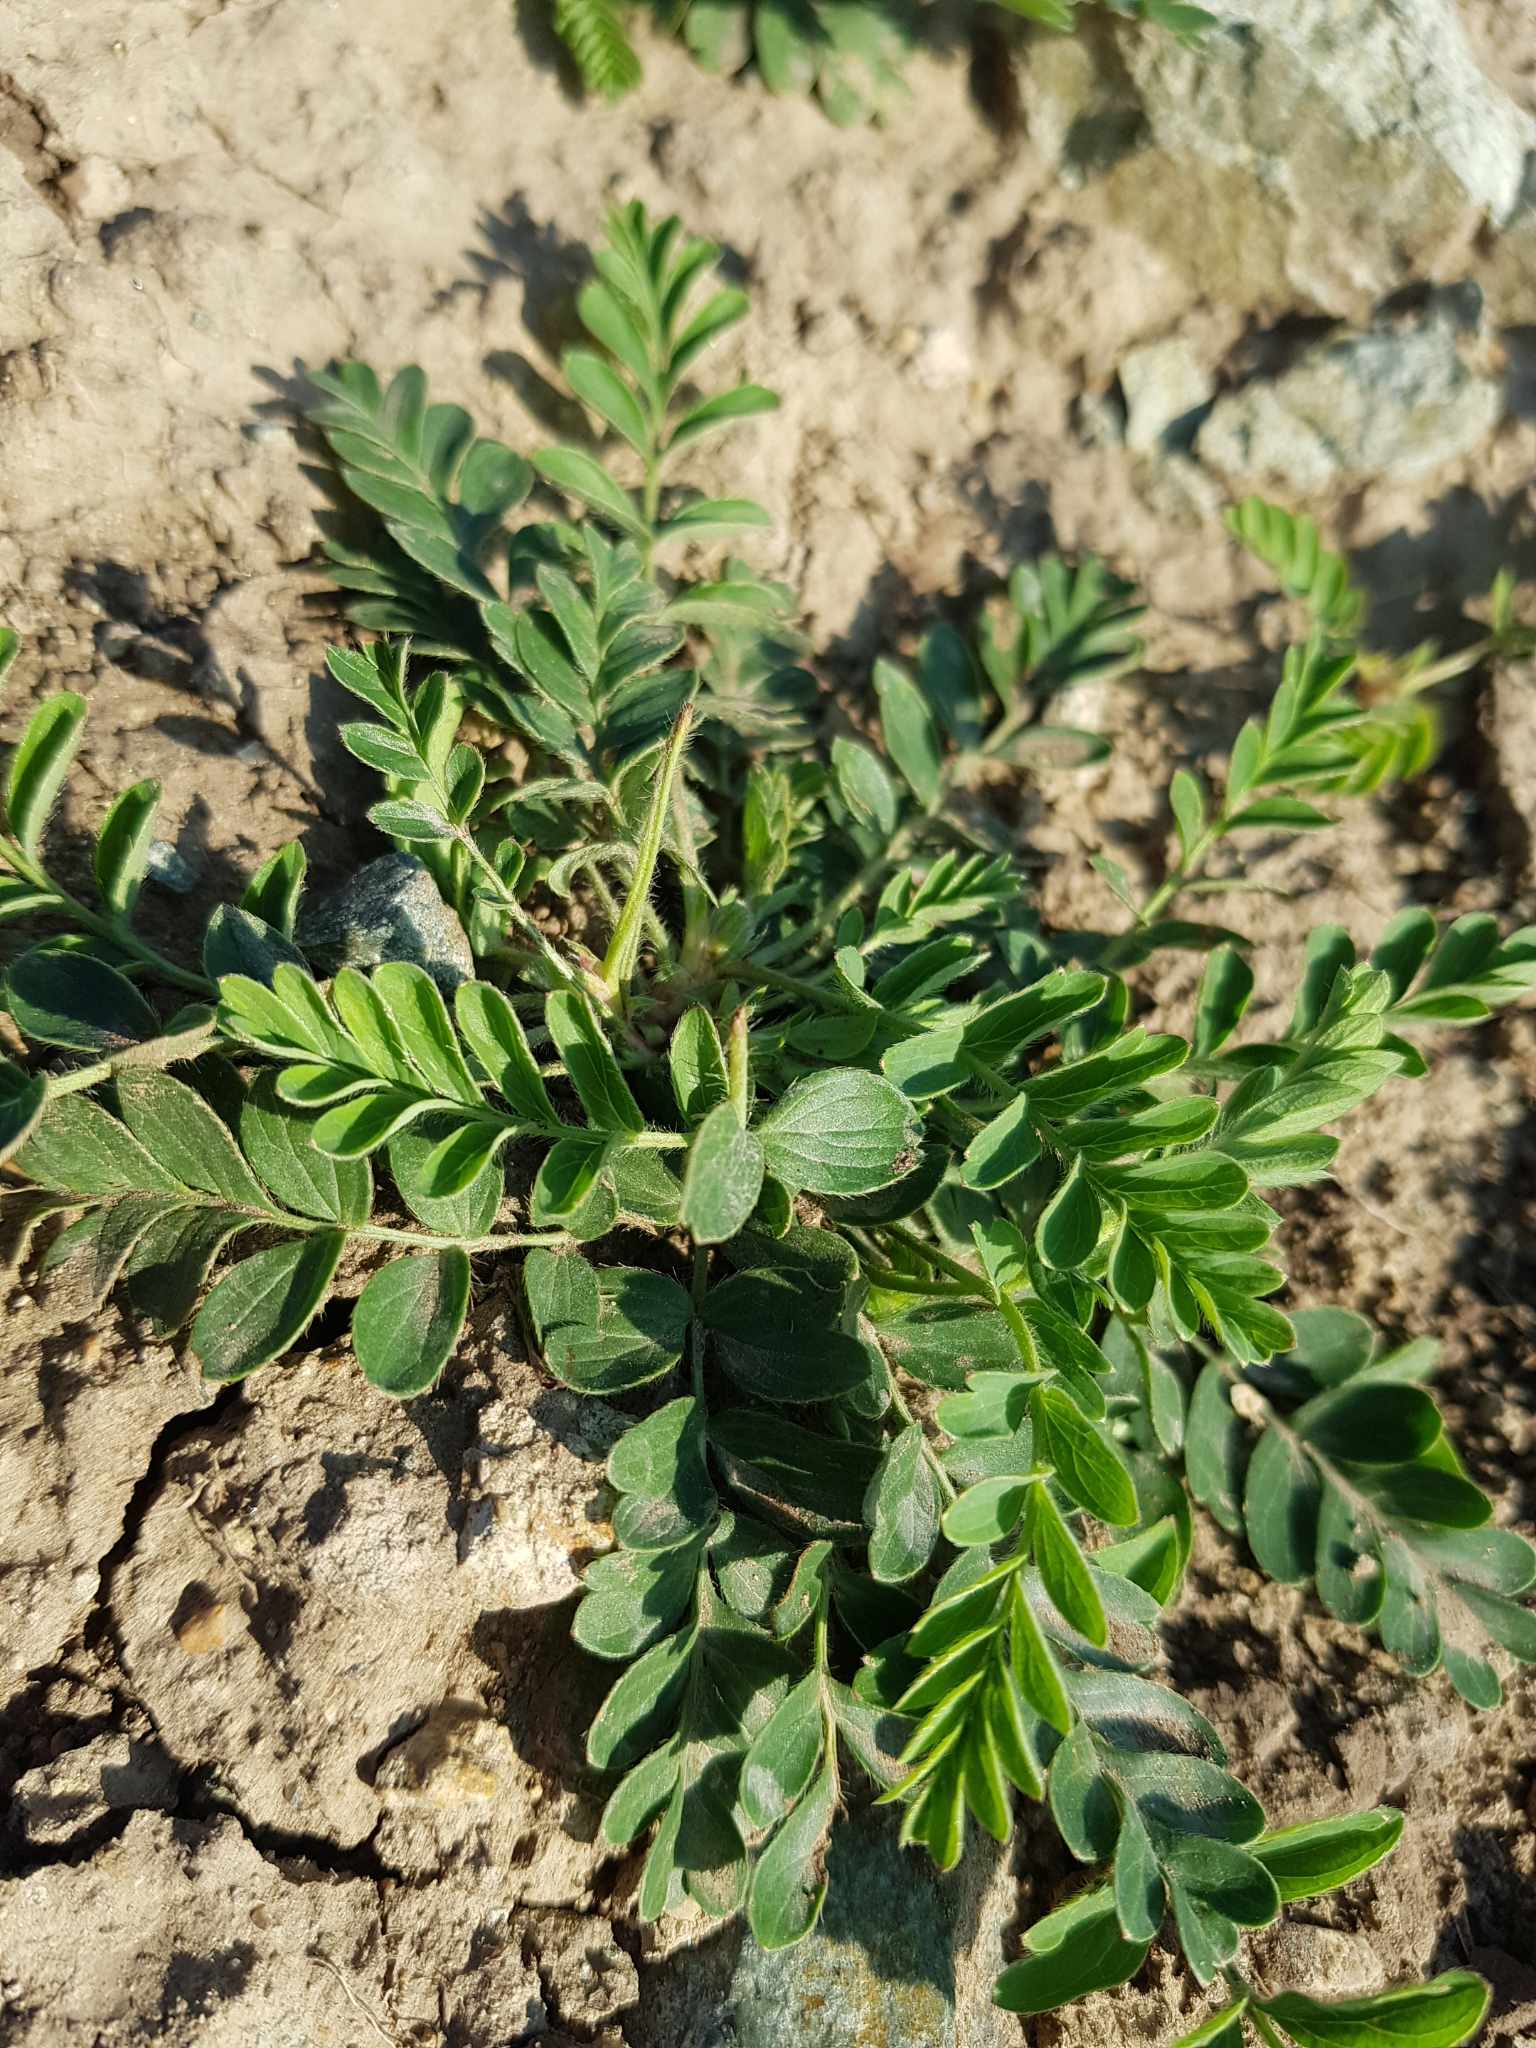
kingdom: Plantae
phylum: Tracheophyta
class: Magnoliopsida
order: Rosales
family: Rosaceae
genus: Sibbaldianthe
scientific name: Sibbaldianthe bifurca
